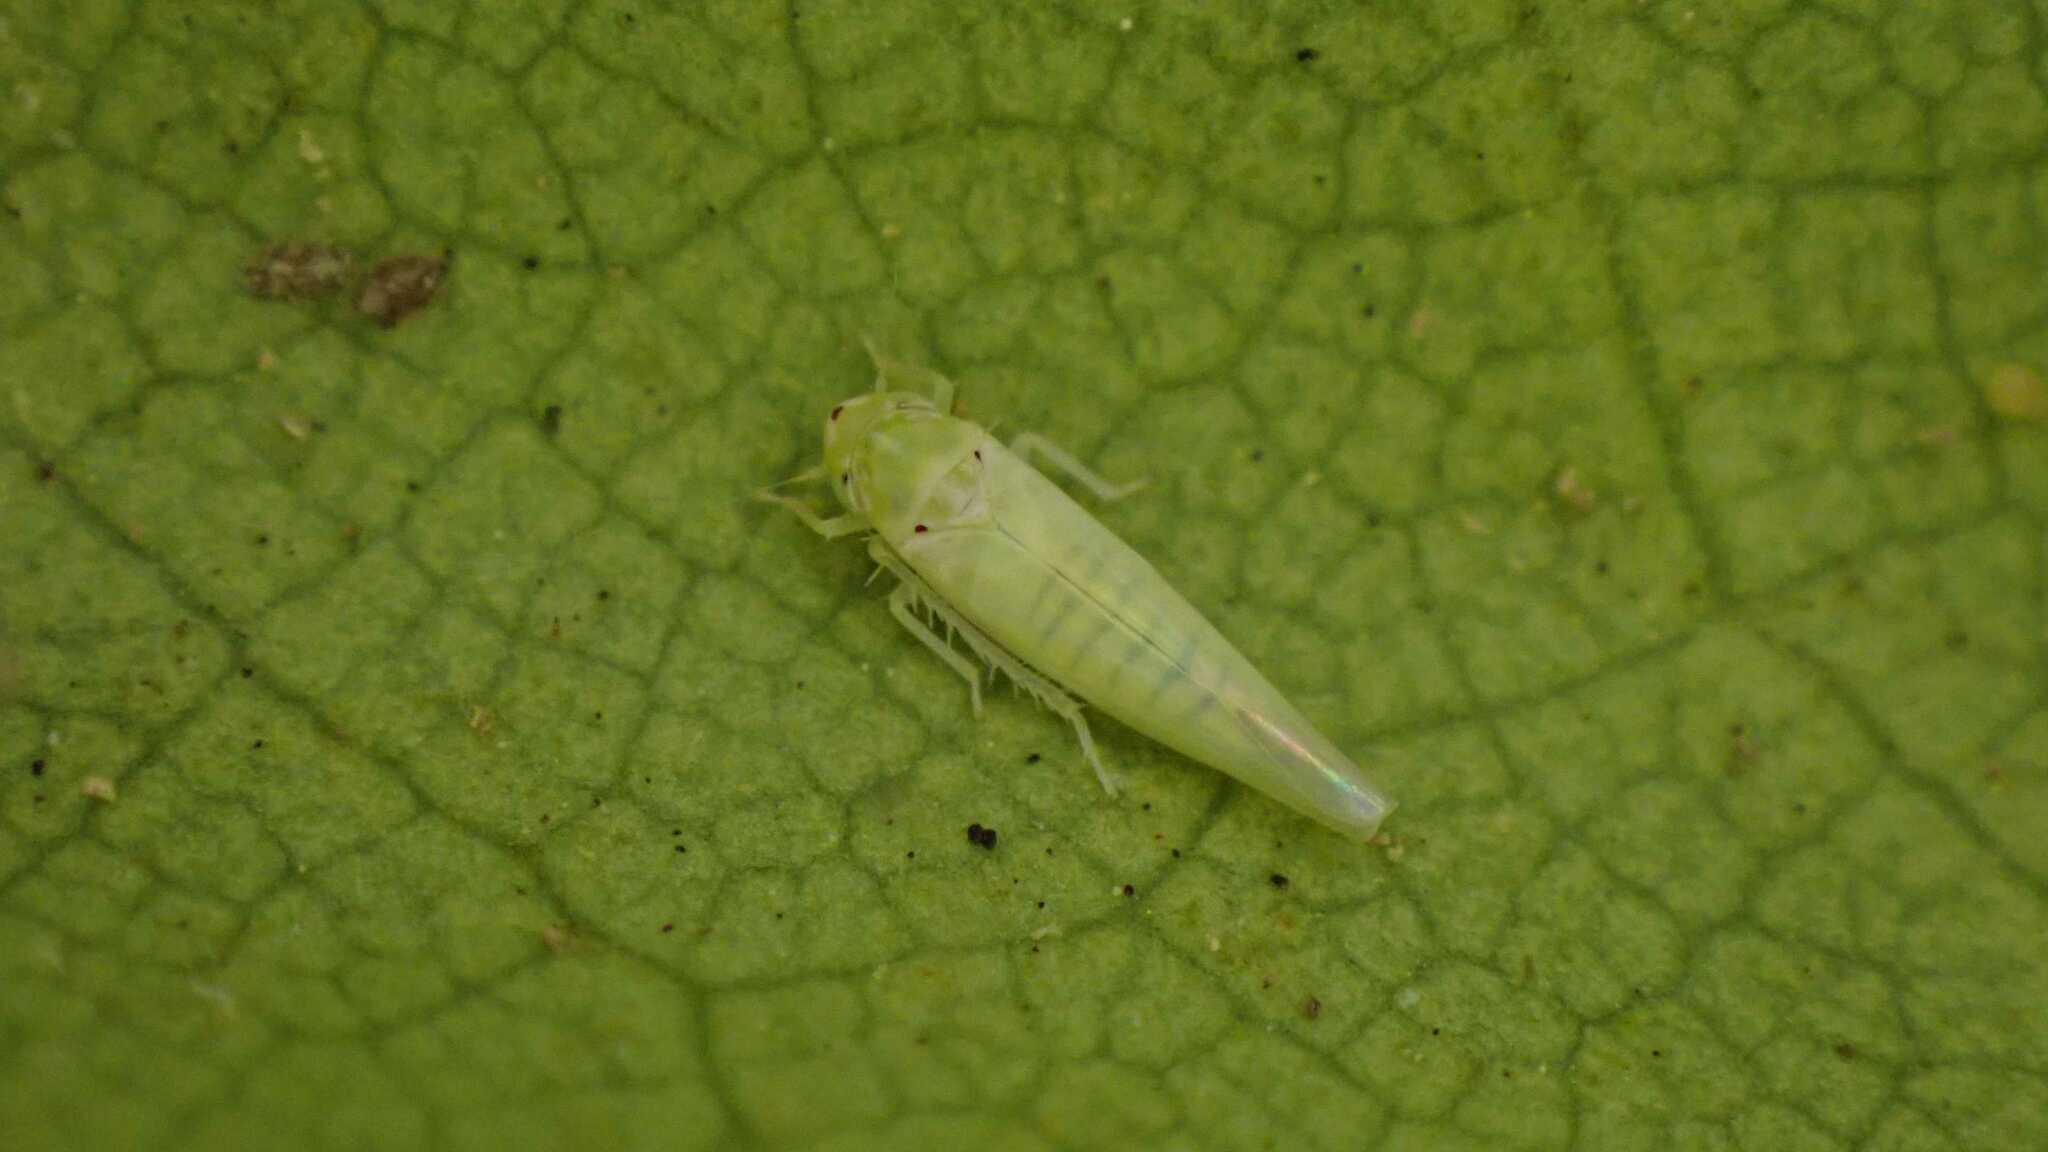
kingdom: Animalia
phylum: Arthropoda
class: Insecta
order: Hemiptera
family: Cicadellidae
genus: Zygina
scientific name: Zygina nivea
